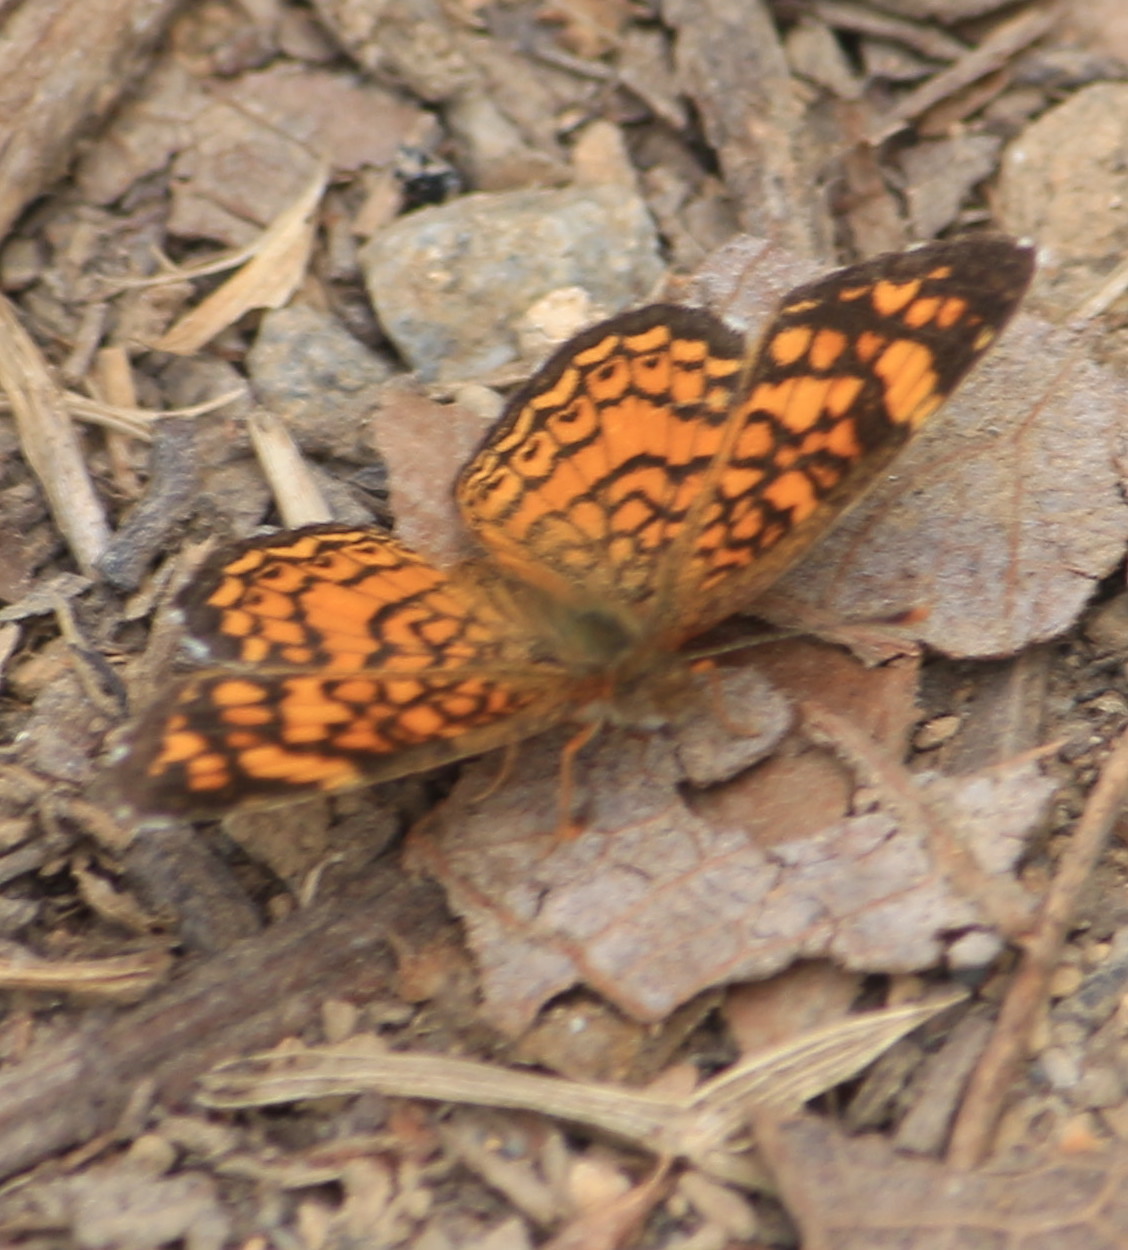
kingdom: Animalia
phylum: Arthropoda
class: Insecta
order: Lepidoptera
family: Nymphalidae
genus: Phyciodes
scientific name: Phyciodes vesta
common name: Vesta crescent
